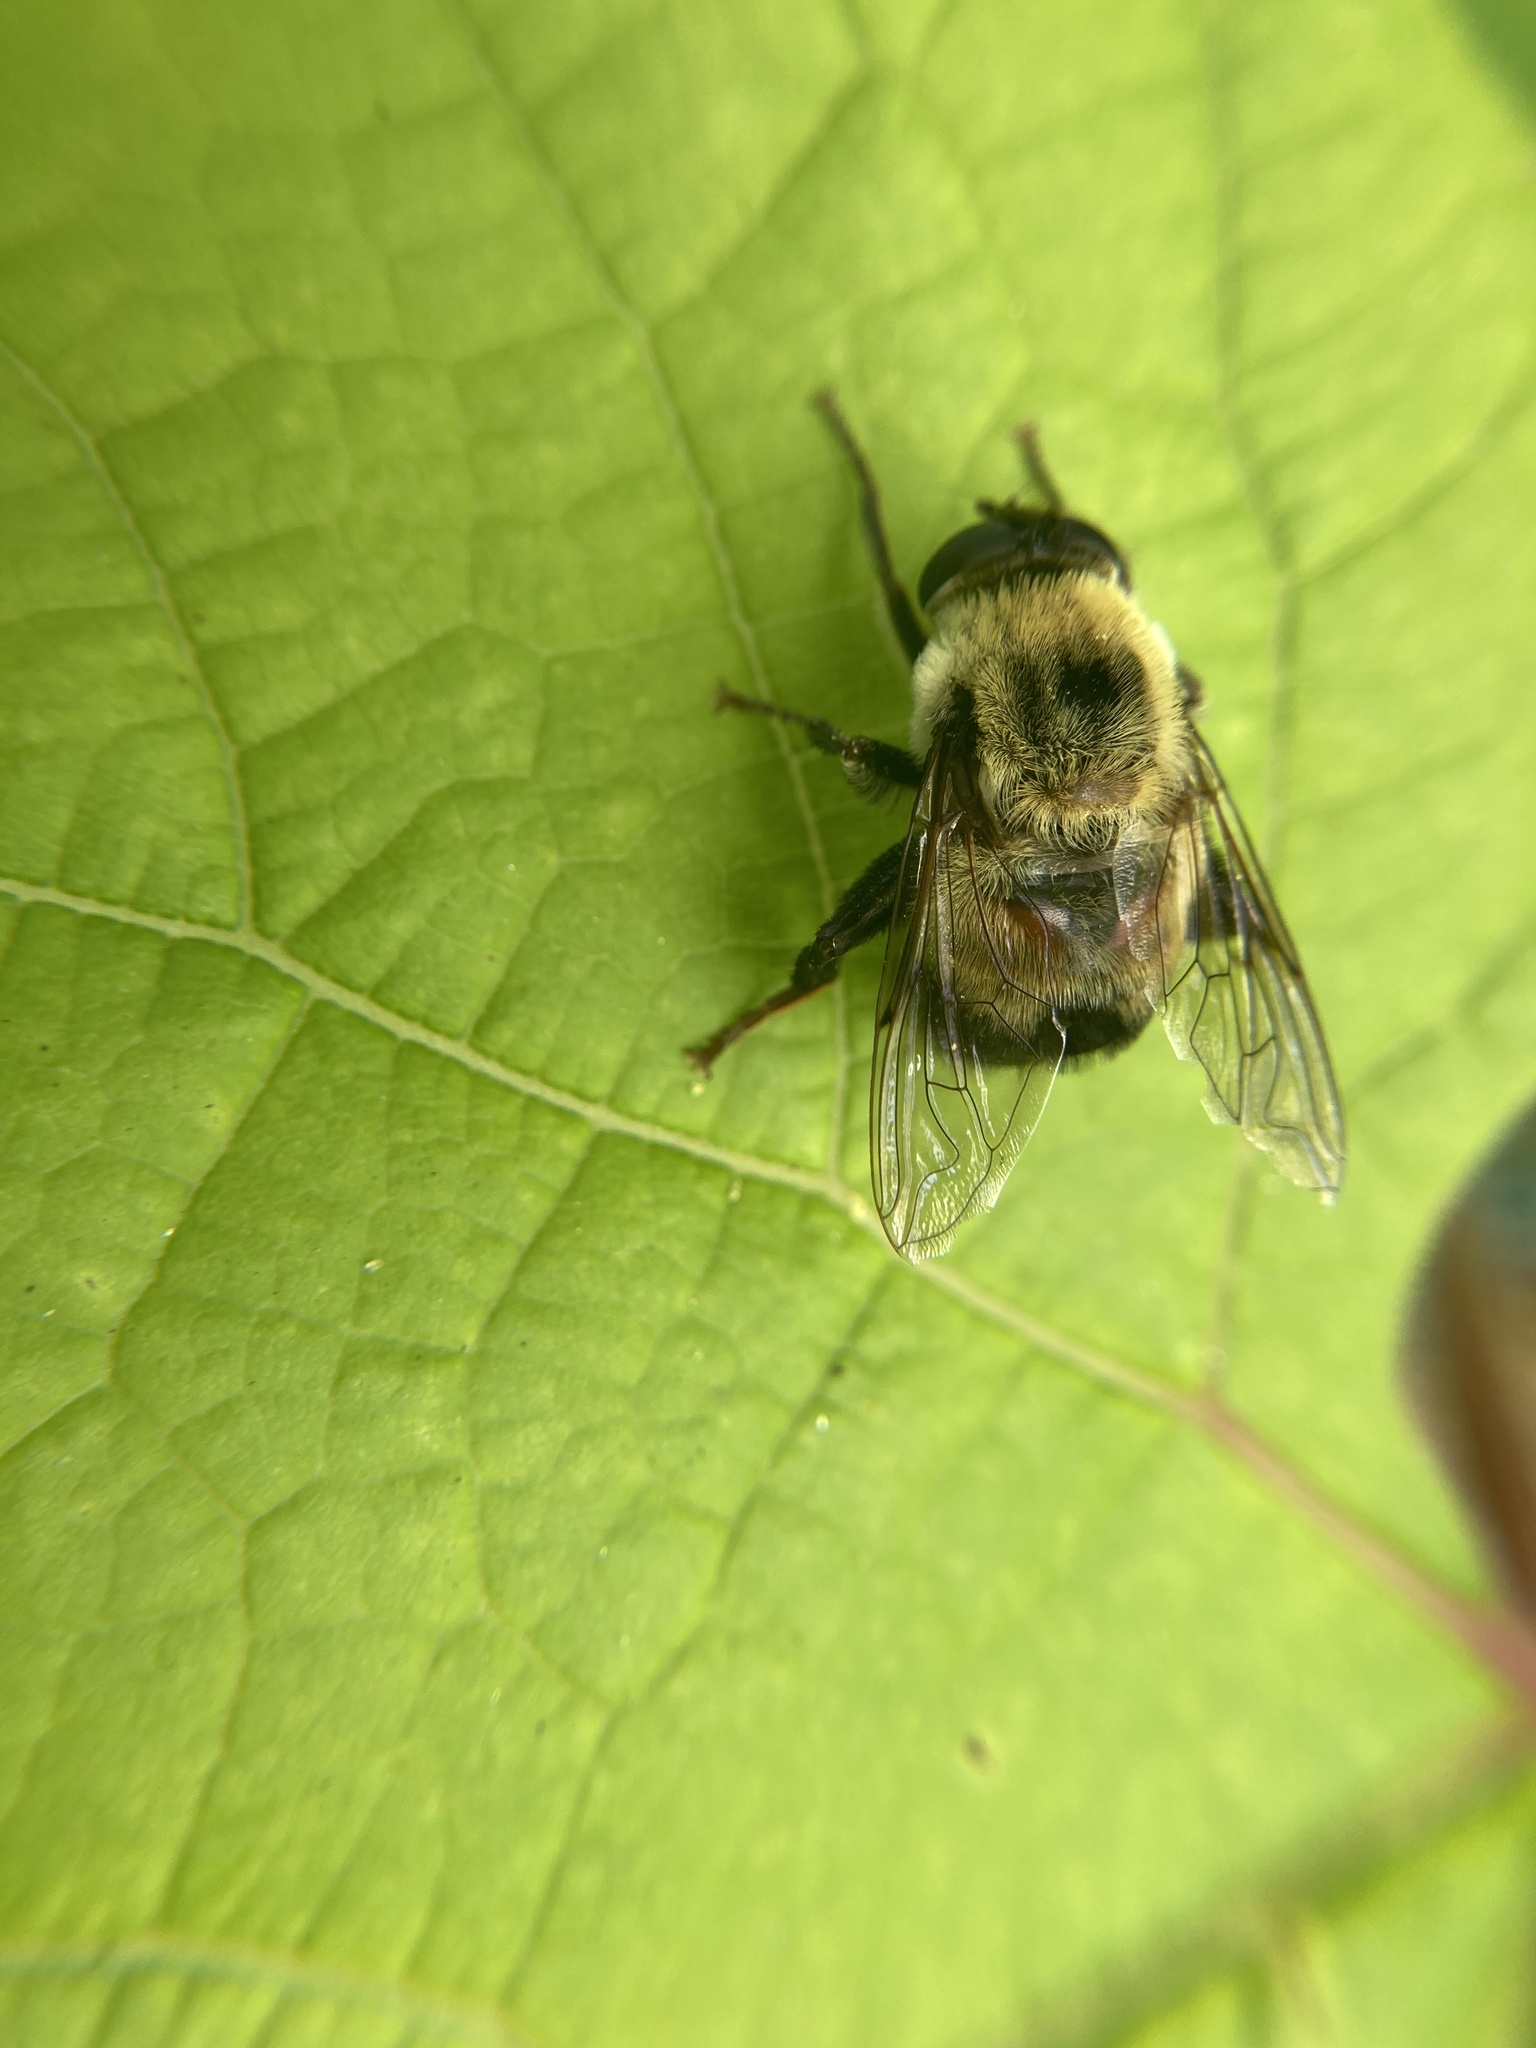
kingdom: Animalia
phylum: Arthropoda
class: Insecta
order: Diptera
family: Syrphidae
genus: Imatisma
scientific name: Imatisma posticata
